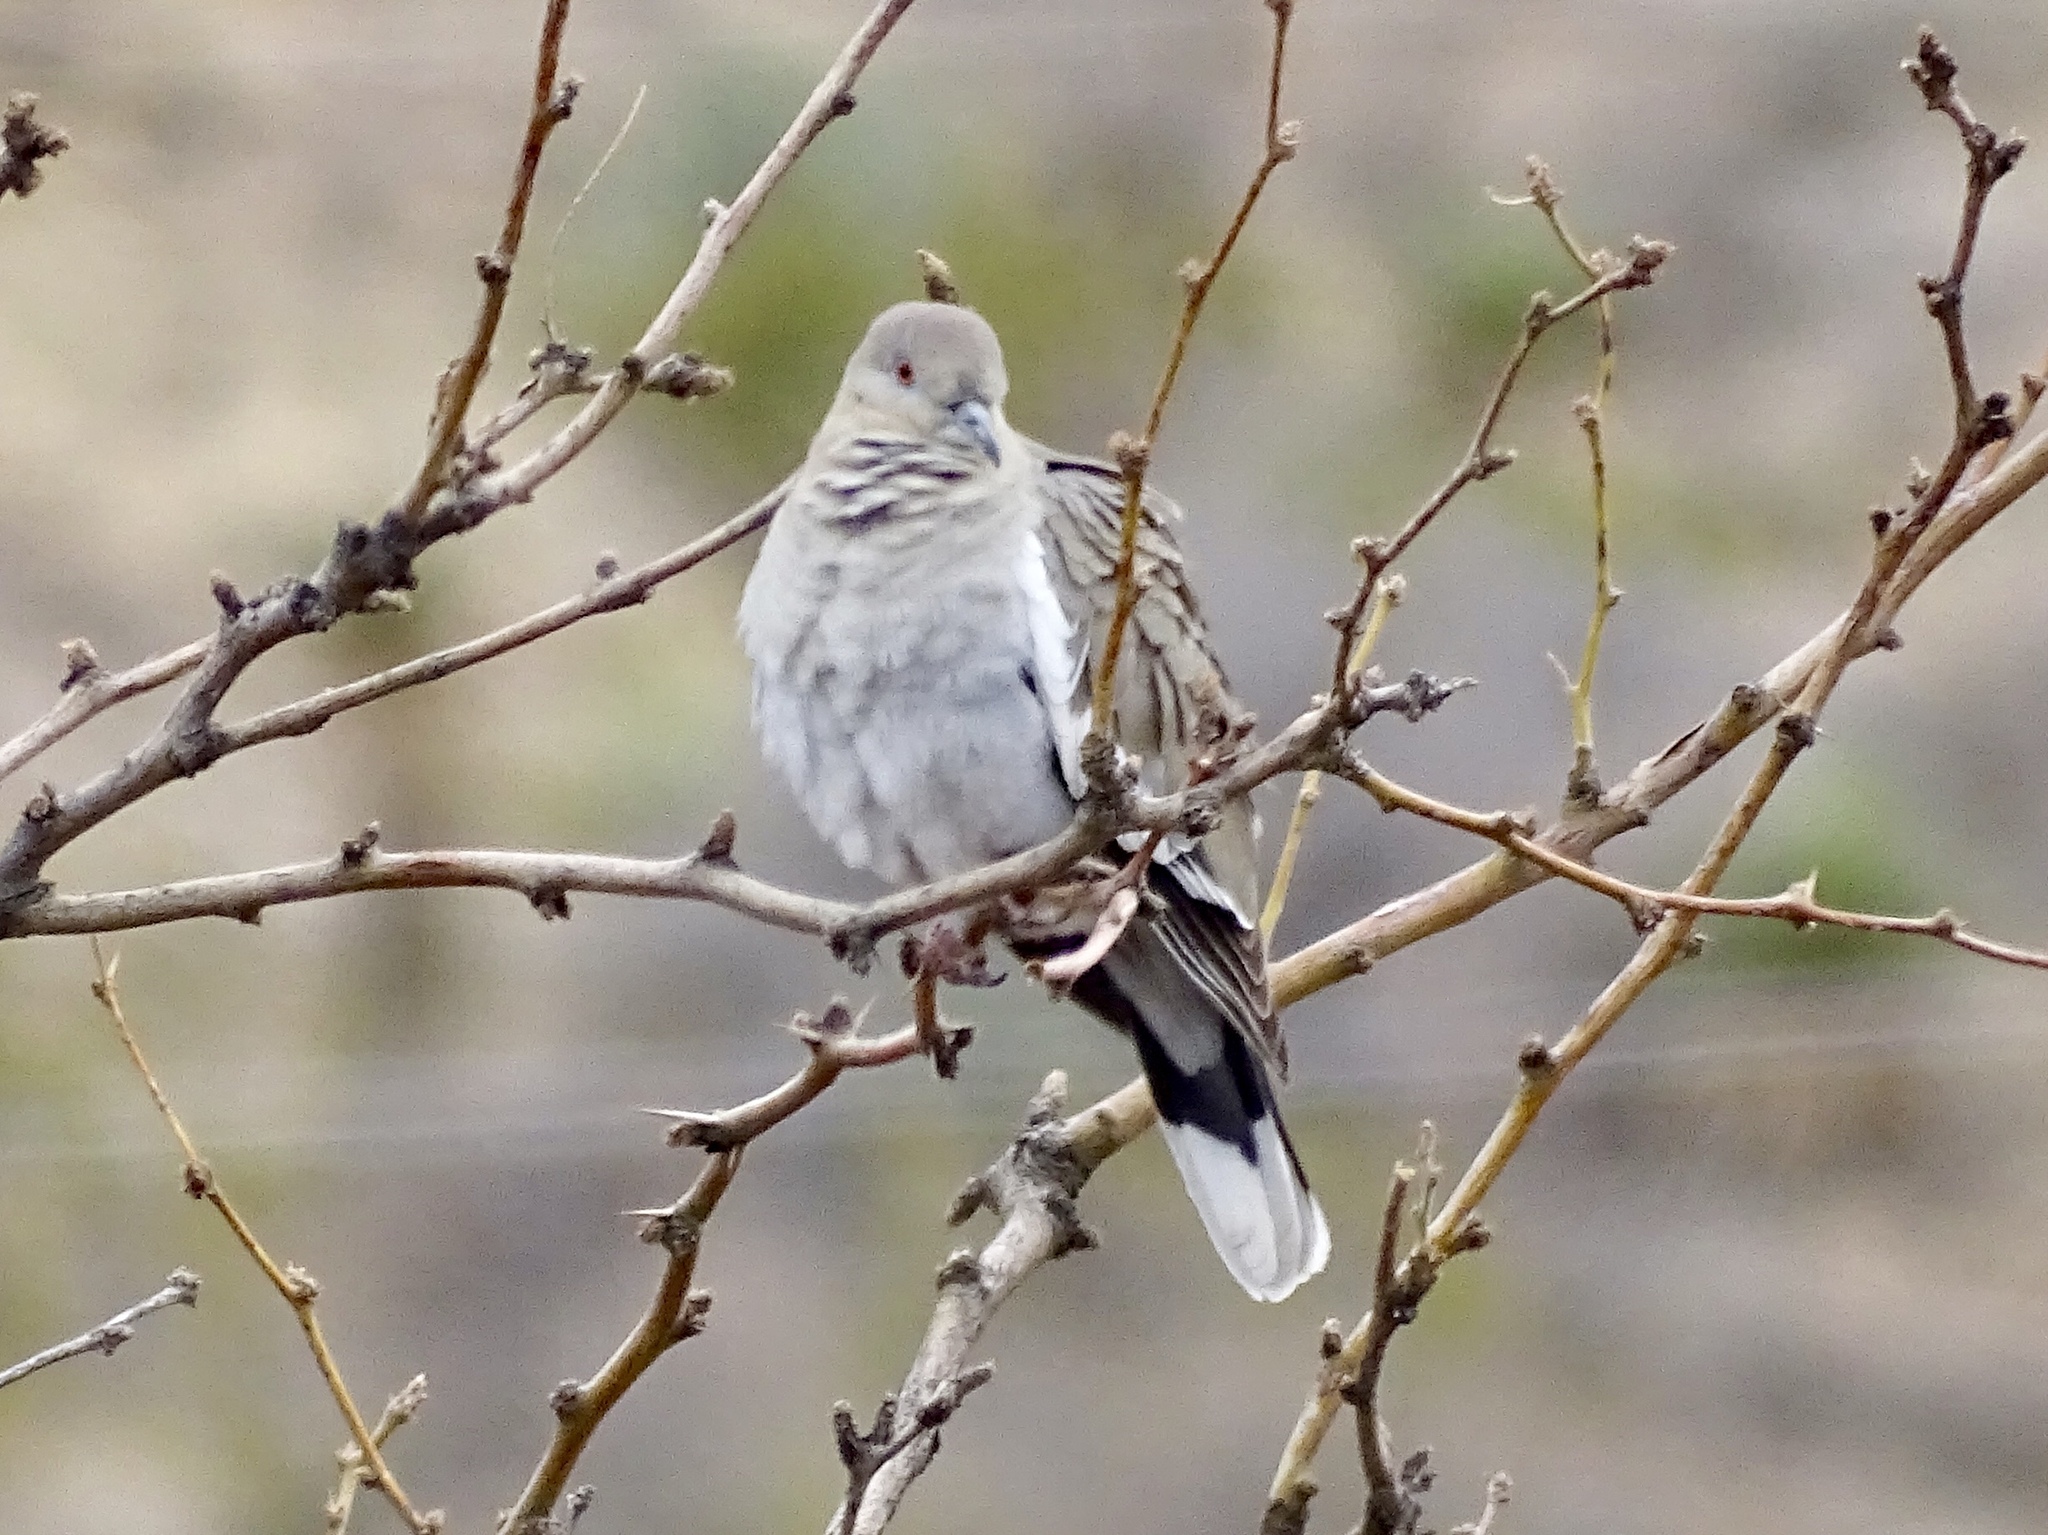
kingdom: Animalia
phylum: Chordata
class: Aves
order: Columbiformes
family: Columbidae
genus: Zenaida
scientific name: Zenaida asiatica
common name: White-winged dove
